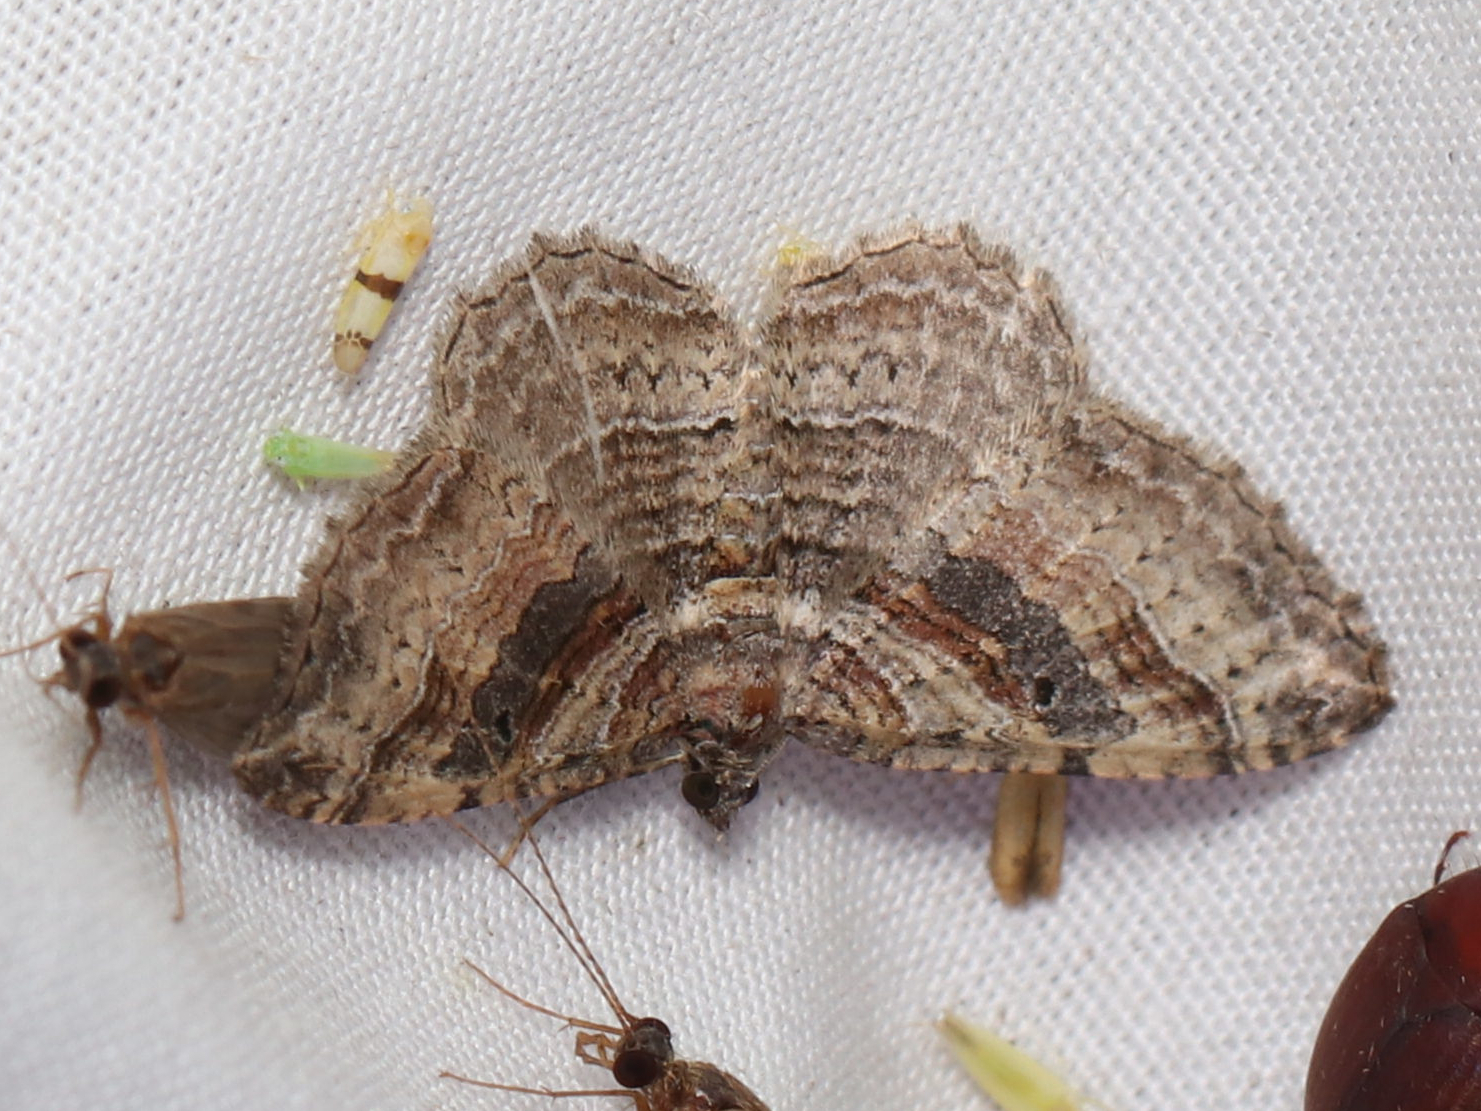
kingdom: Animalia
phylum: Arthropoda
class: Insecta
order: Lepidoptera
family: Geometridae
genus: Costaconvexa
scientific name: Costaconvexa centrostrigaria
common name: Bent-line carpet
